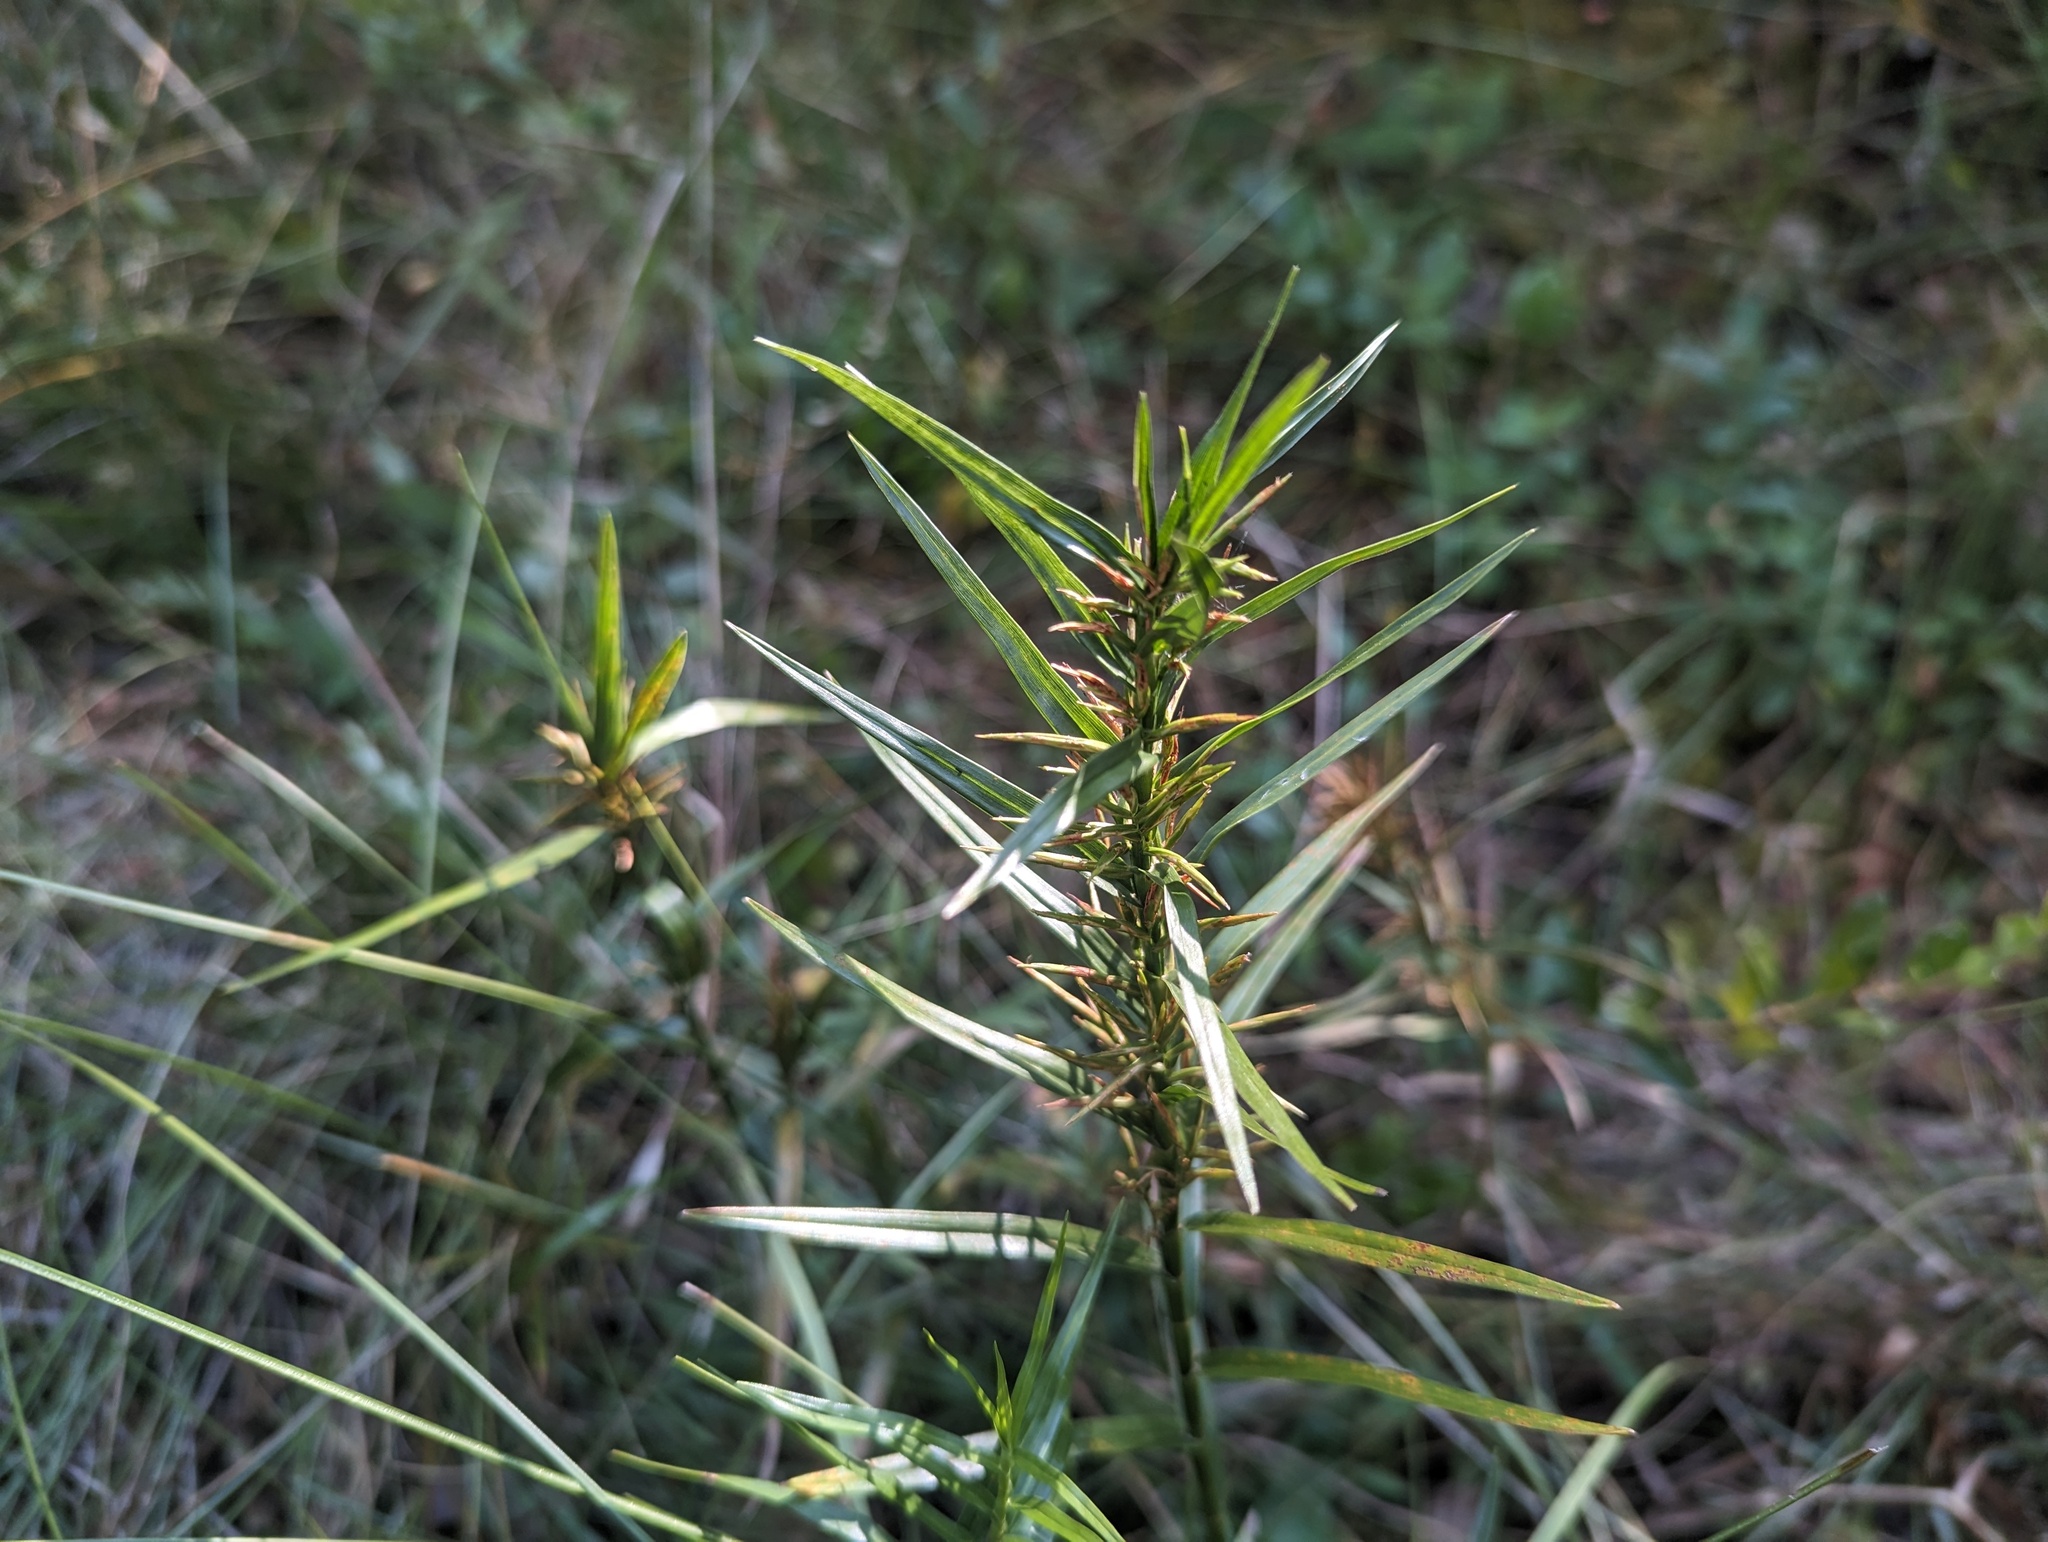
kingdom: Plantae
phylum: Tracheophyta
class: Liliopsida
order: Poales
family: Cyperaceae
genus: Dulichium
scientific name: Dulichium arundinaceum
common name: Three-way sedge
